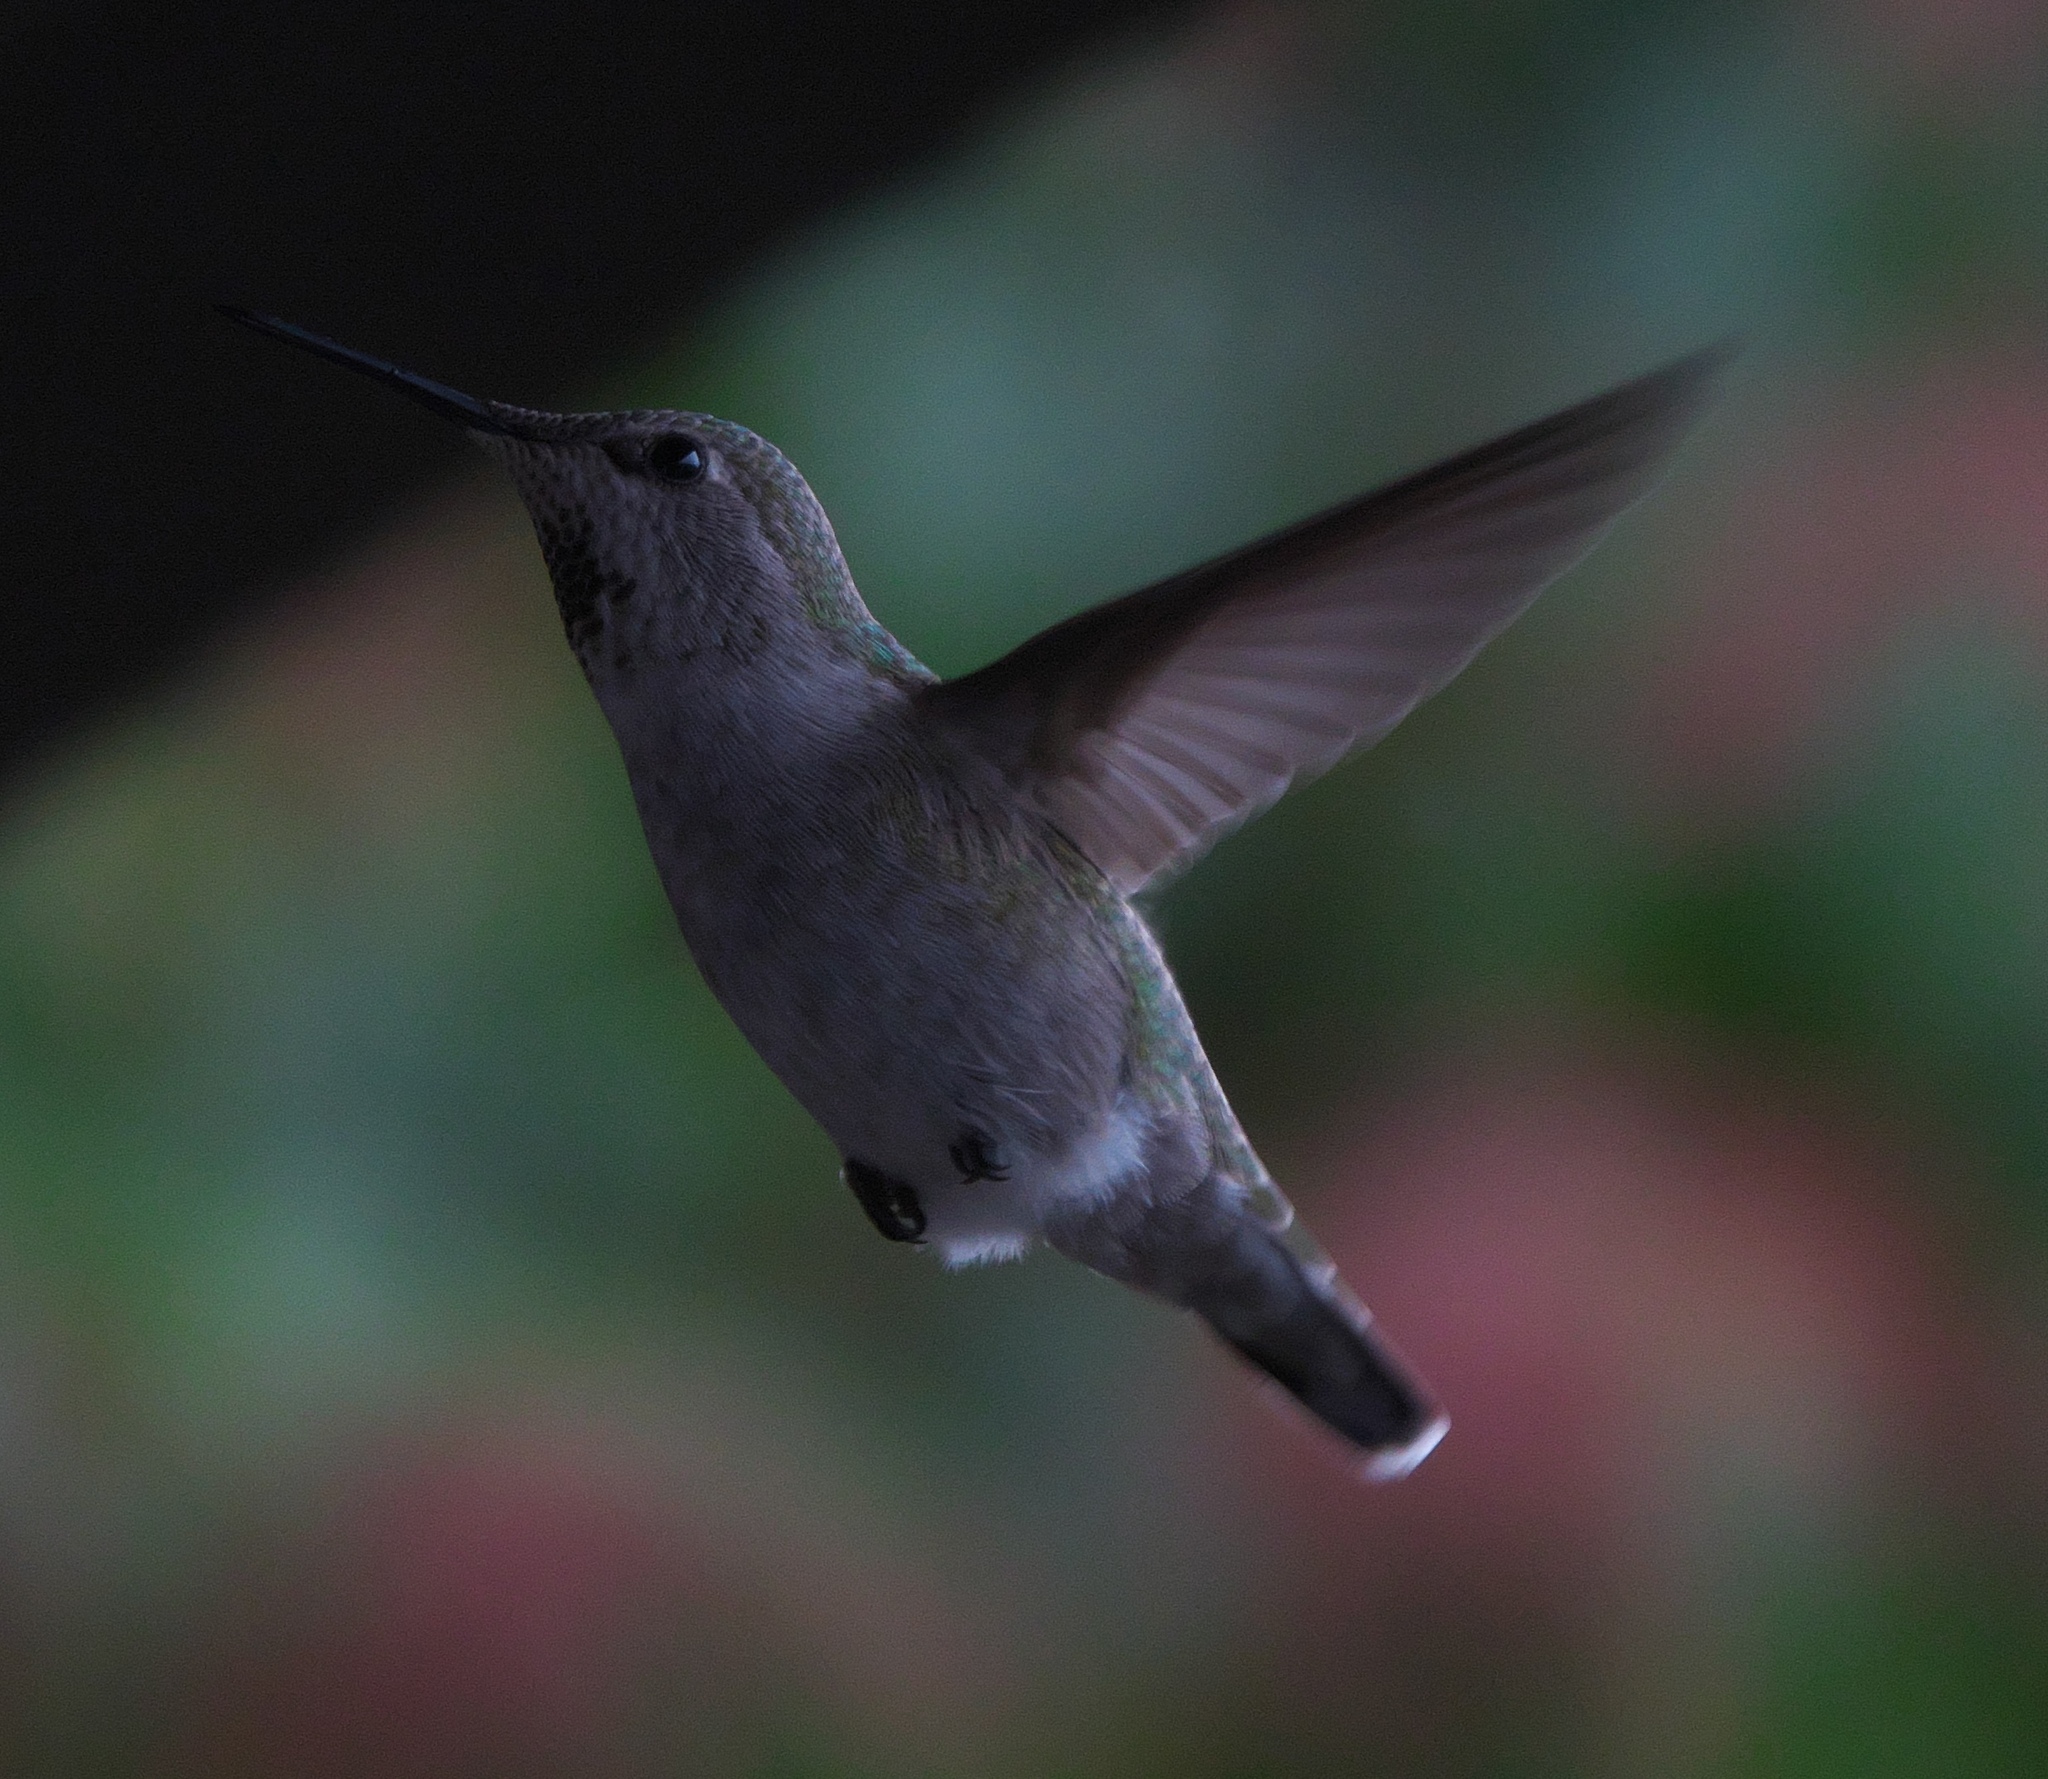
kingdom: Animalia
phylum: Chordata
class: Aves
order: Apodiformes
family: Trochilidae
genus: Calypte
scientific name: Calypte anna
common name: Anna's hummingbird
